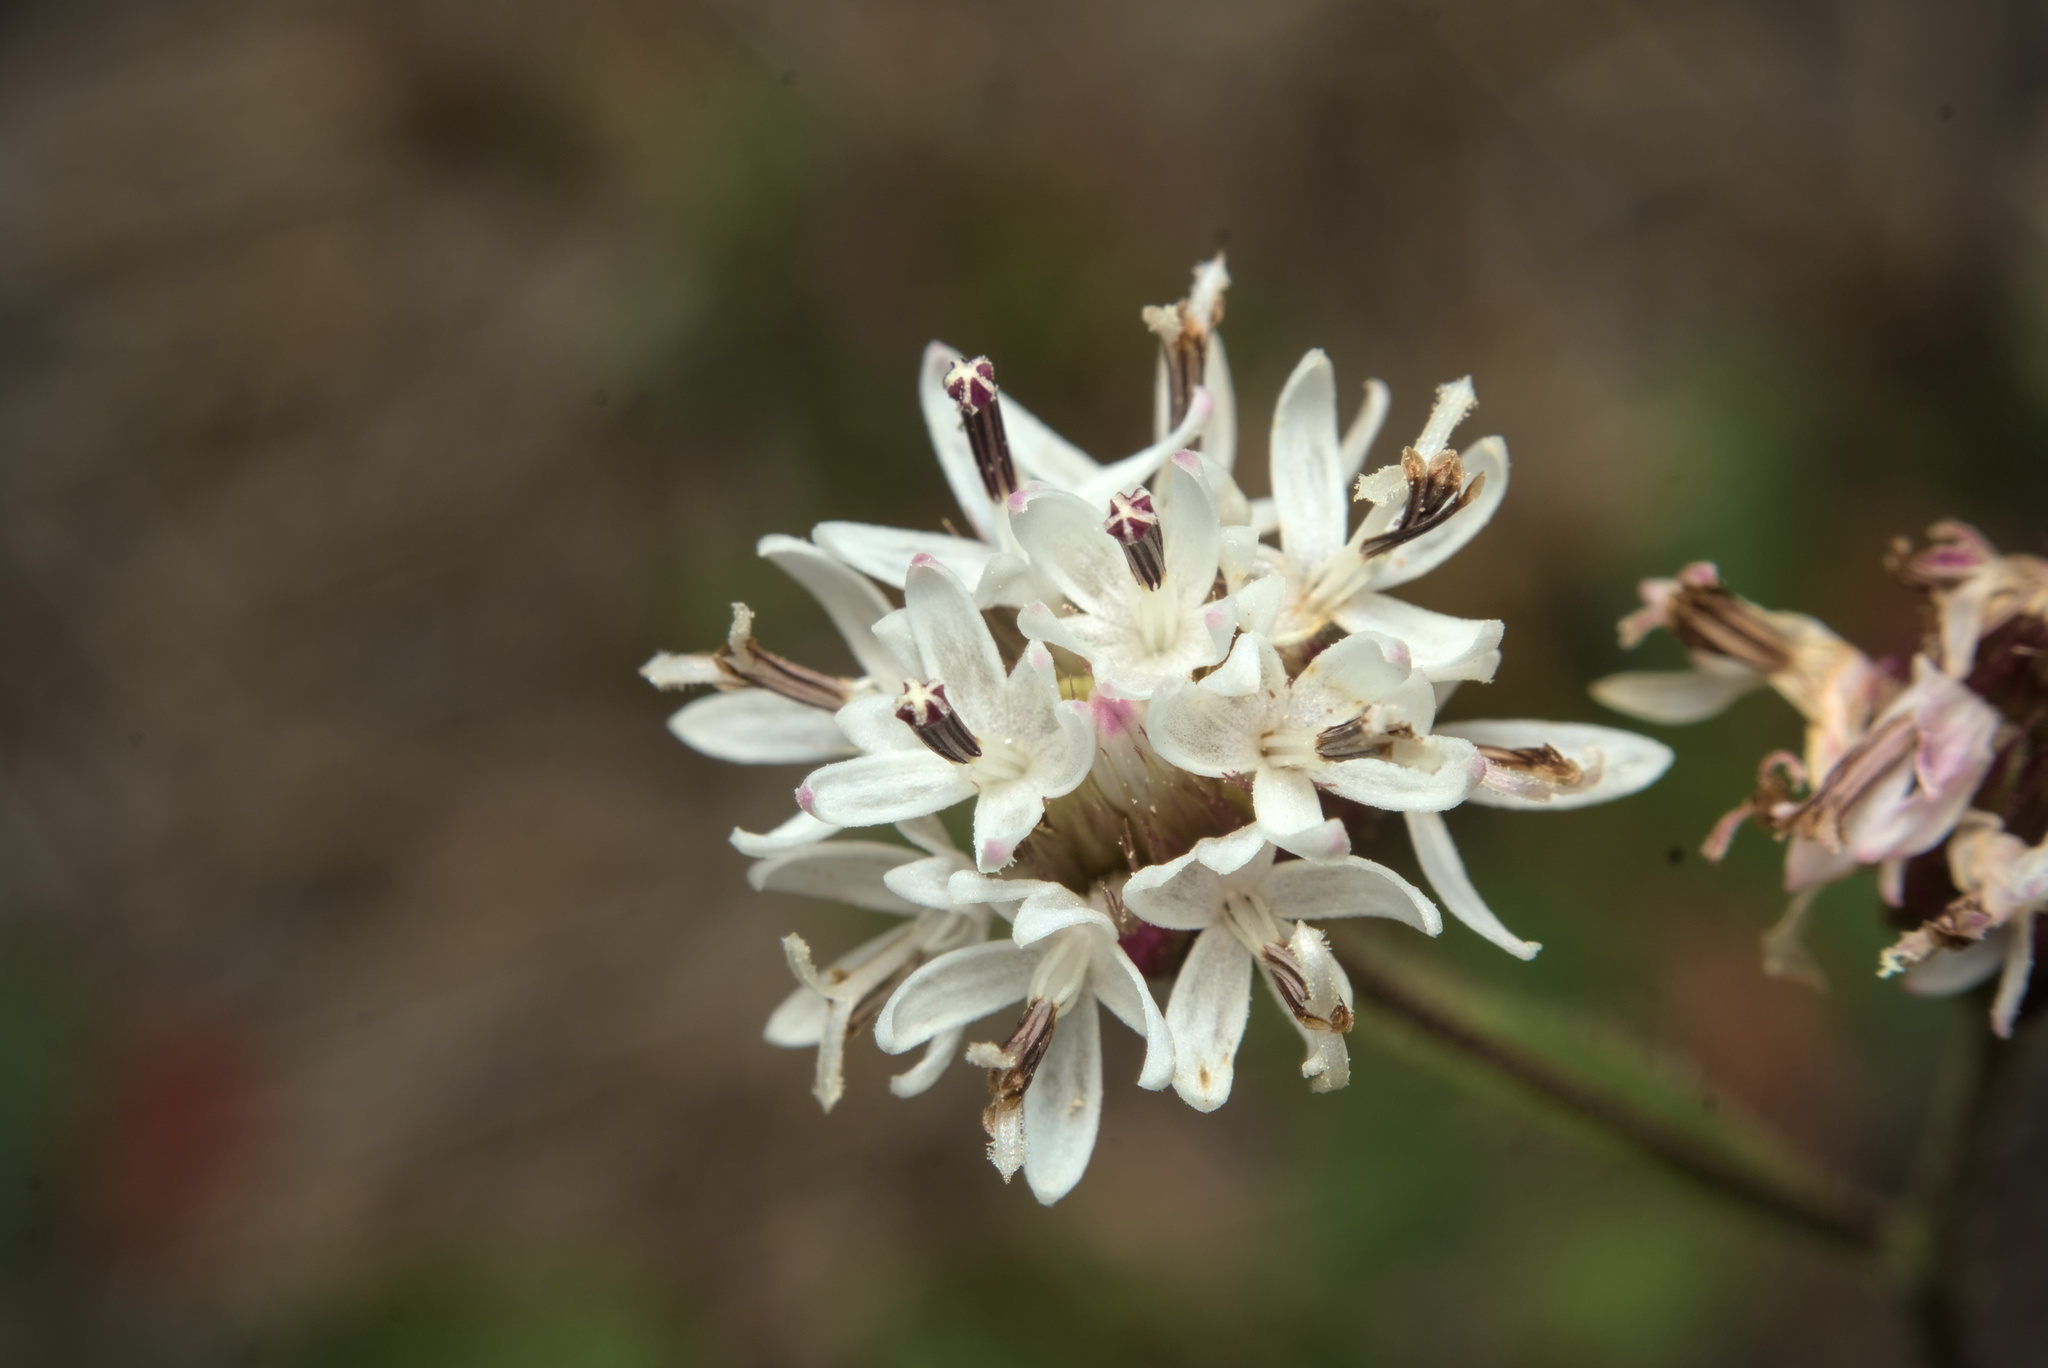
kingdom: Plantae
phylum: Tracheophyta
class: Magnoliopsida
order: Asterales
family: Asteraceae
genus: Hymenothrix
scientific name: Hymenothrix wrightii
